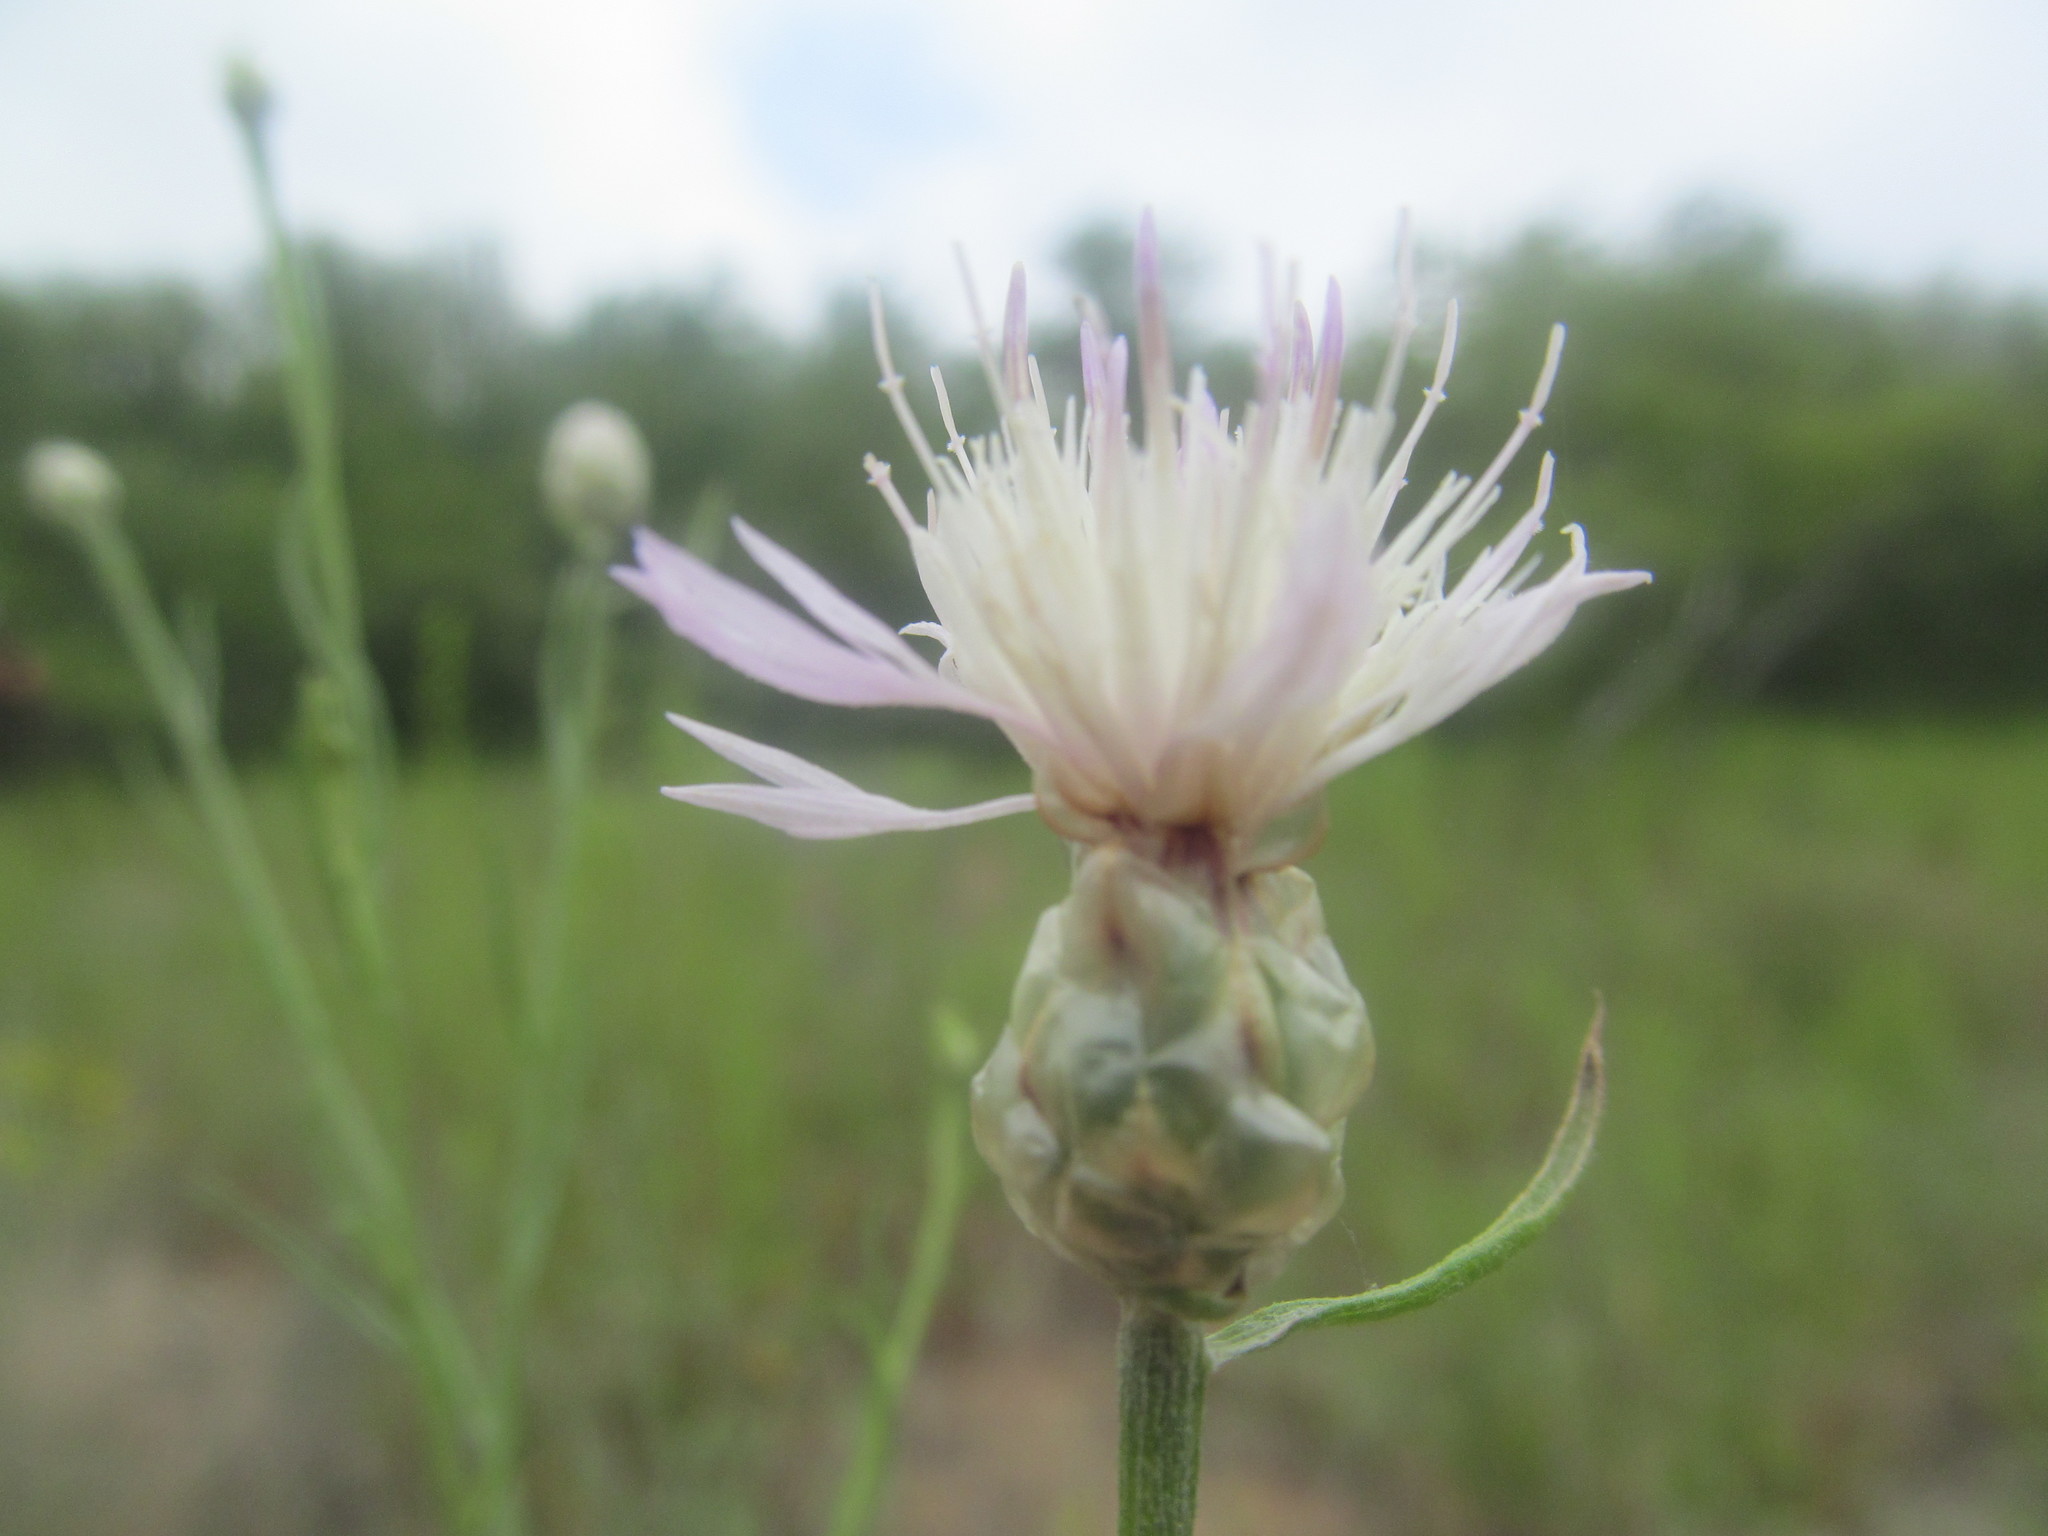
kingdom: Plantae
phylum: Tracheophyta
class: Magnoliopsida
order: Asterales
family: Asteraceae
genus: Centaurea
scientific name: Centaurea breviceps
